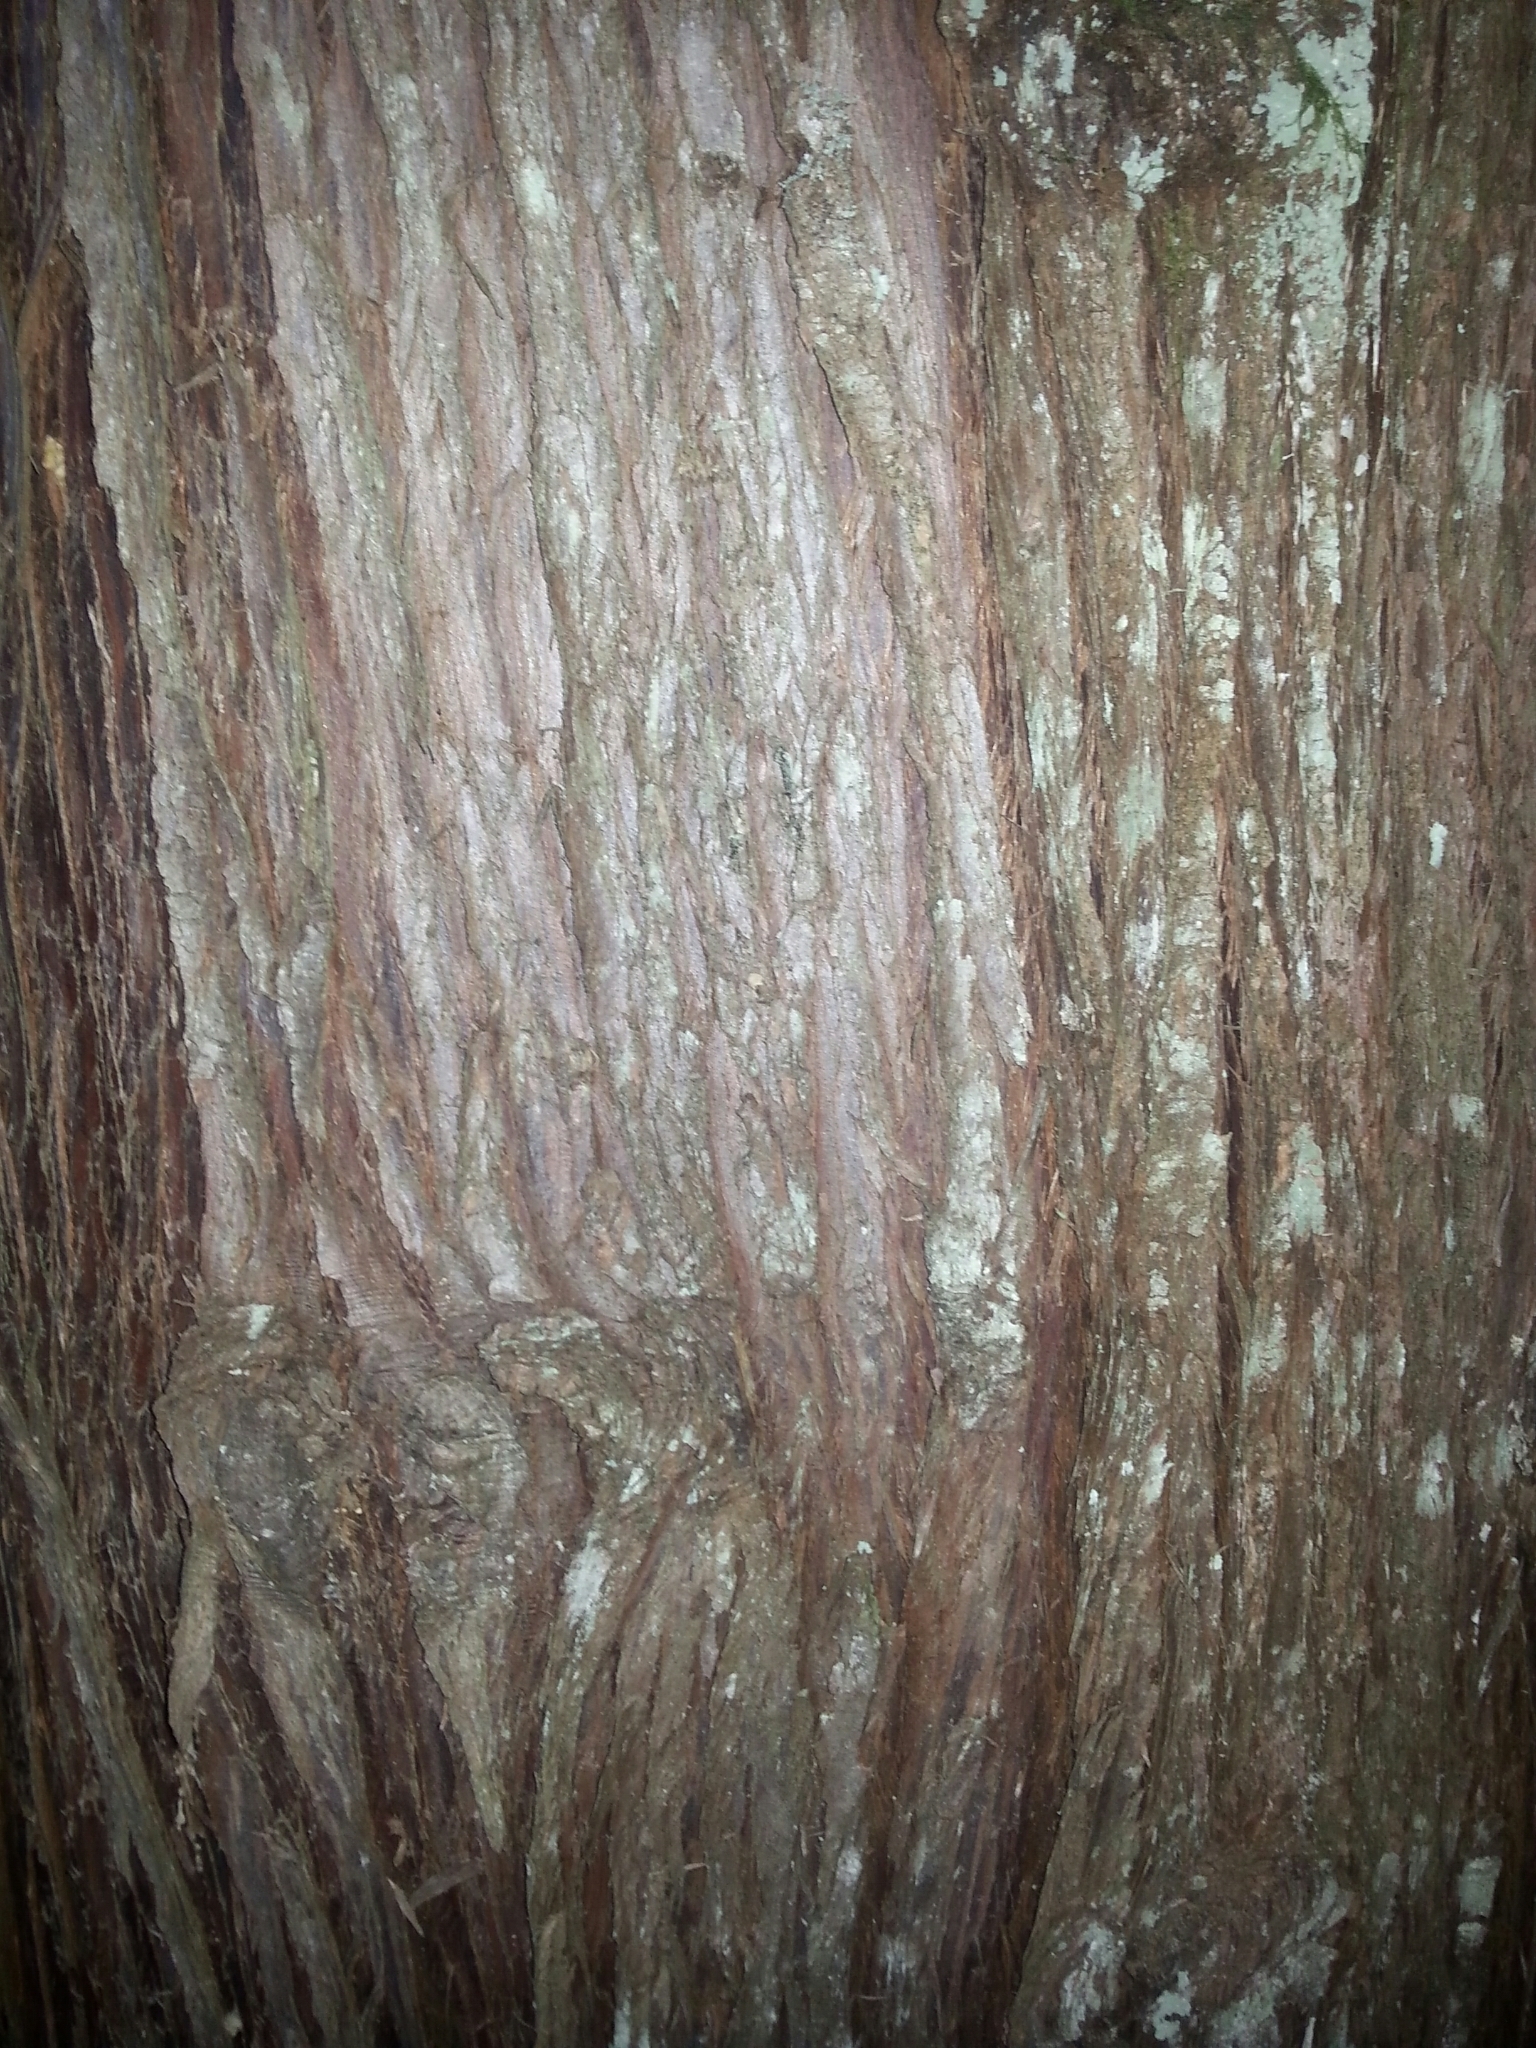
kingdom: Plantae
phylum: Tracheophyta
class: Pinopsida
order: Pinales
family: Cupressaceae
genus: Thuja
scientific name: Thuja plicata
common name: Western red-cedar
